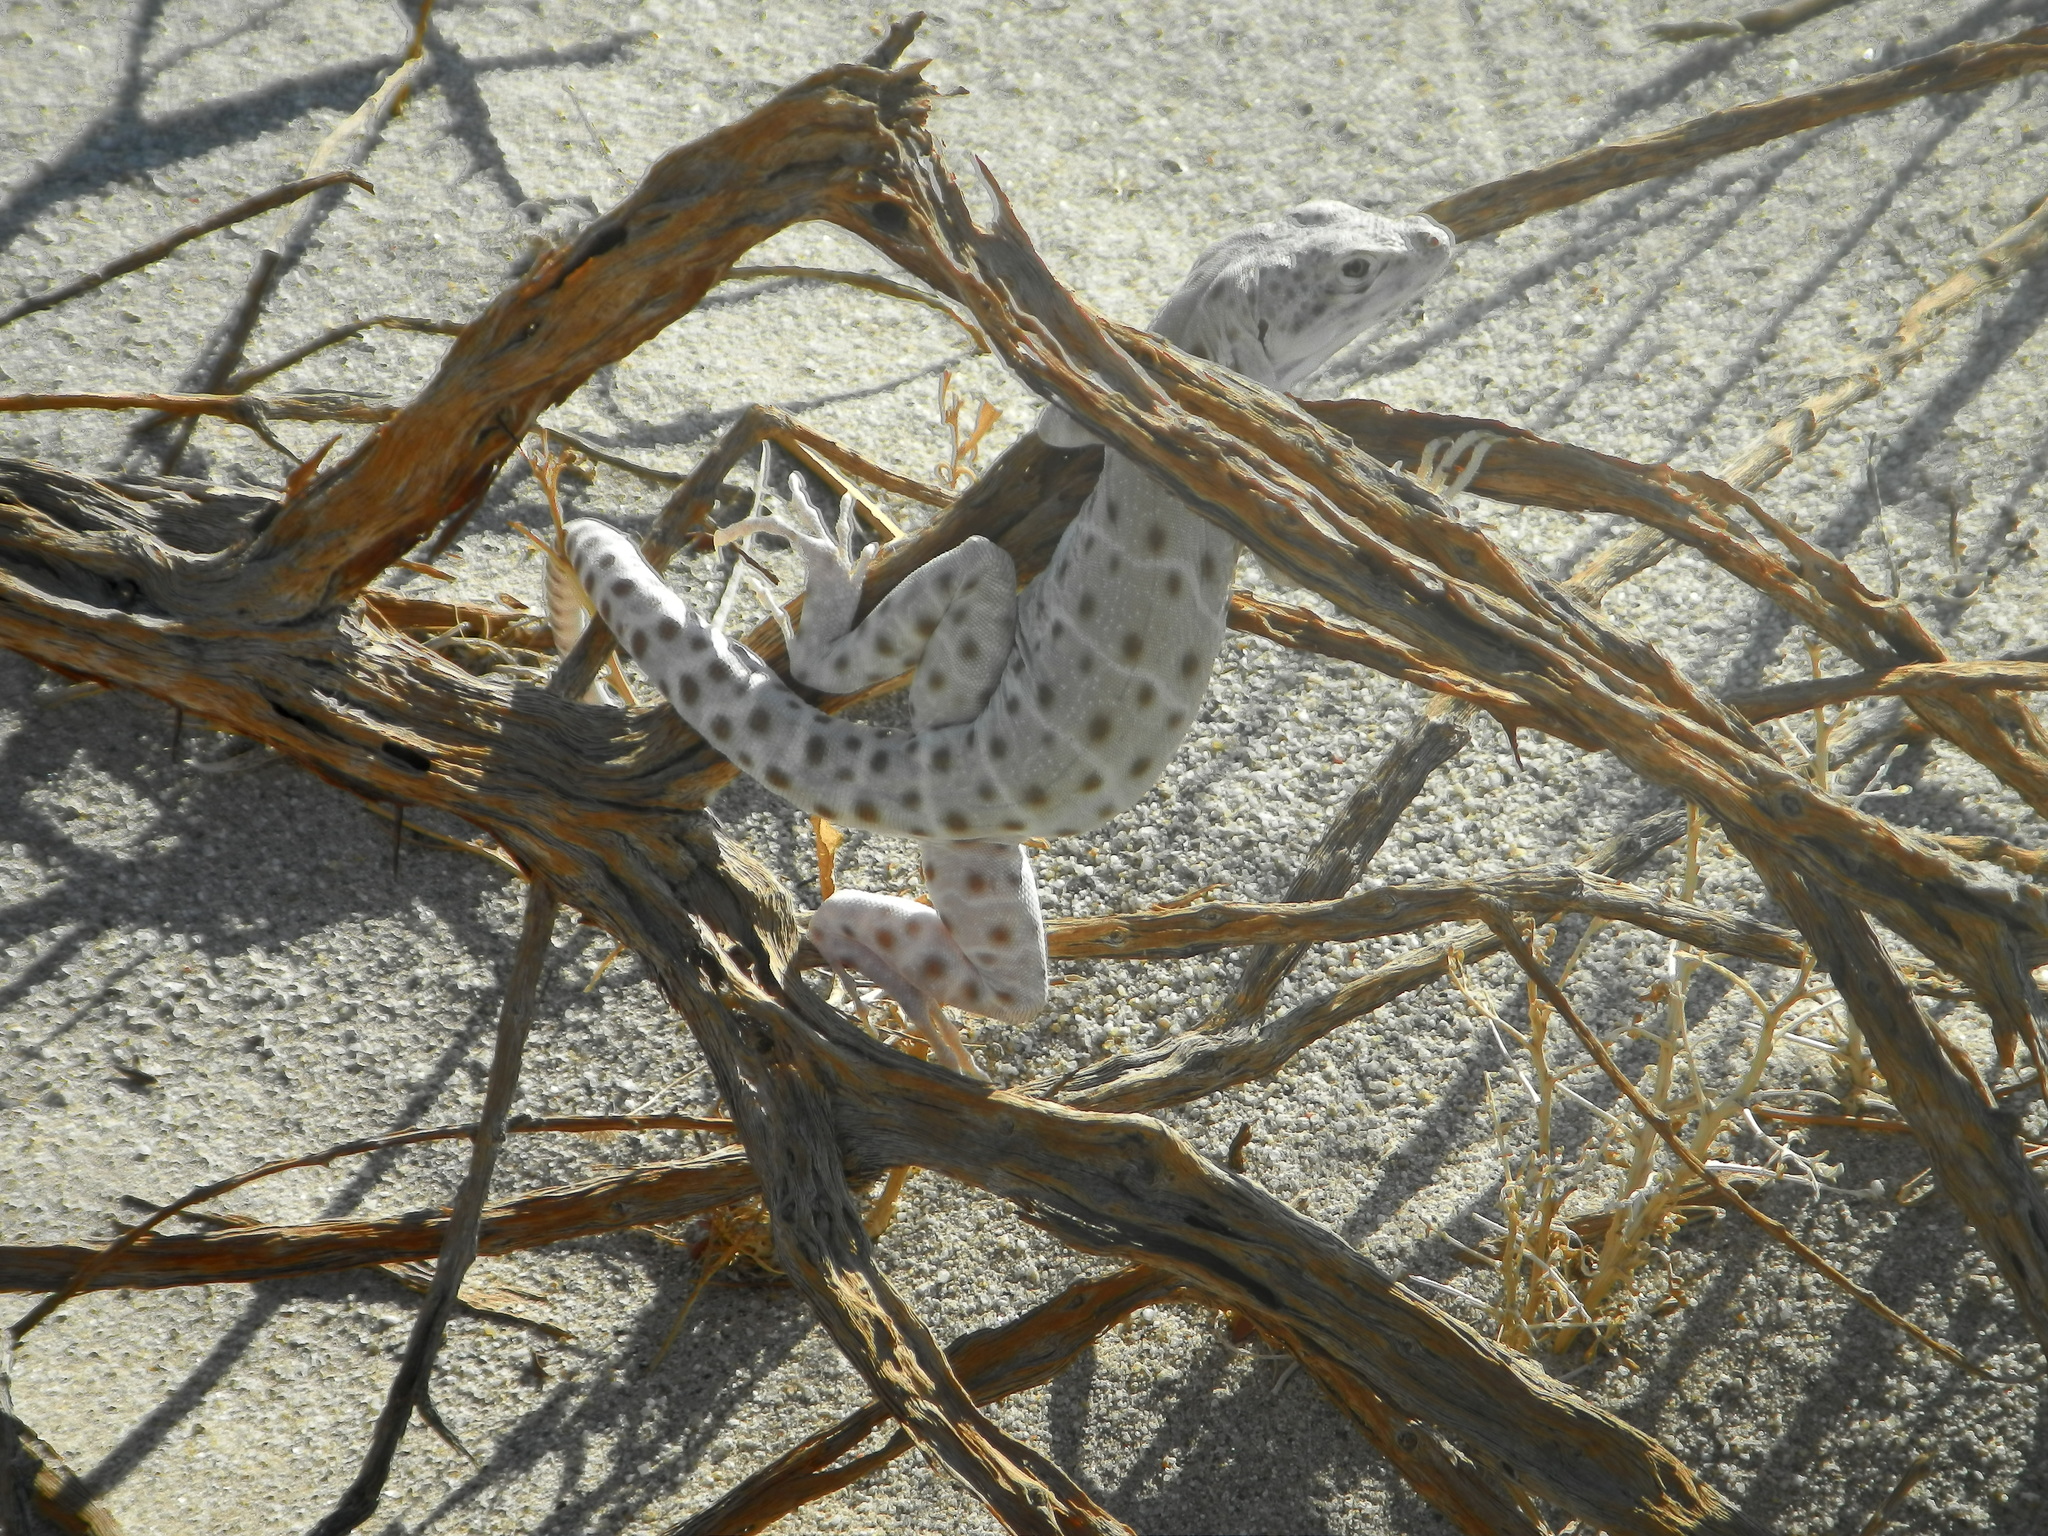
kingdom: Animalia
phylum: Chordata
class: Squamata
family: Crotaphytidae
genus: Gambelia
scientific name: Gambelia wislizenii
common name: Longnose leopard lizard
